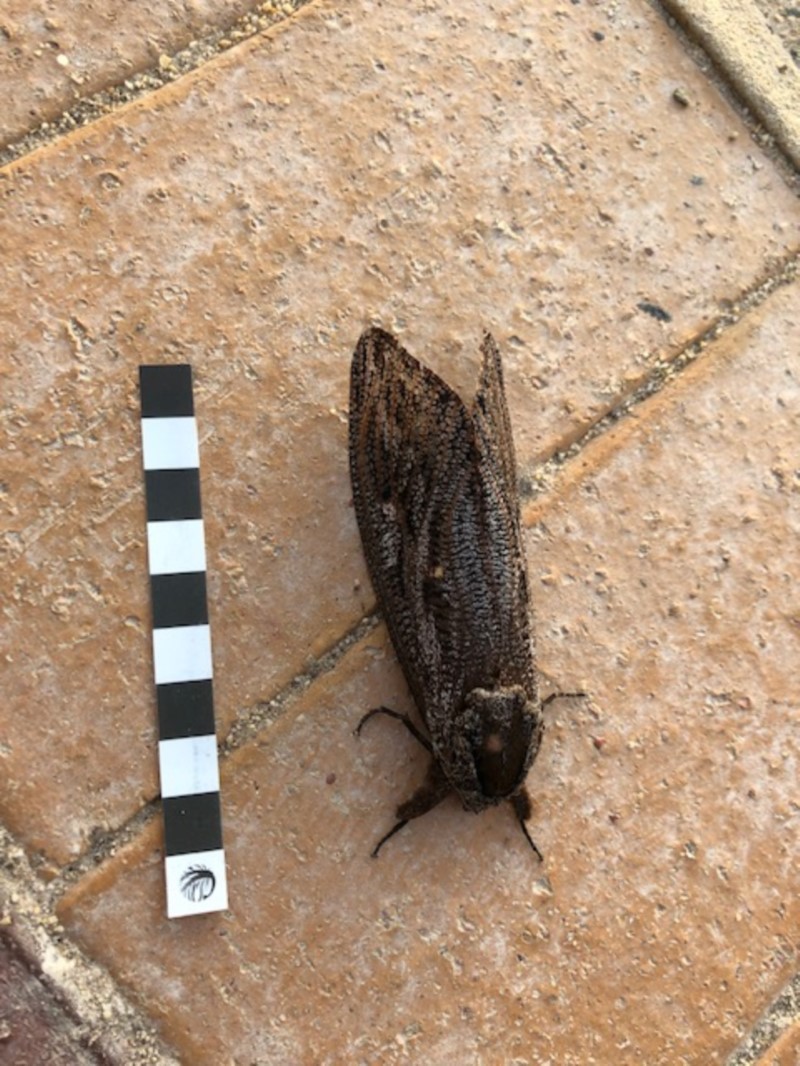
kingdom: Animalia
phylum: Arthropoda
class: Insecta
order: Lepidoptera
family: Cossidae
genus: Endoxyla
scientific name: Endoxyla encalypti
